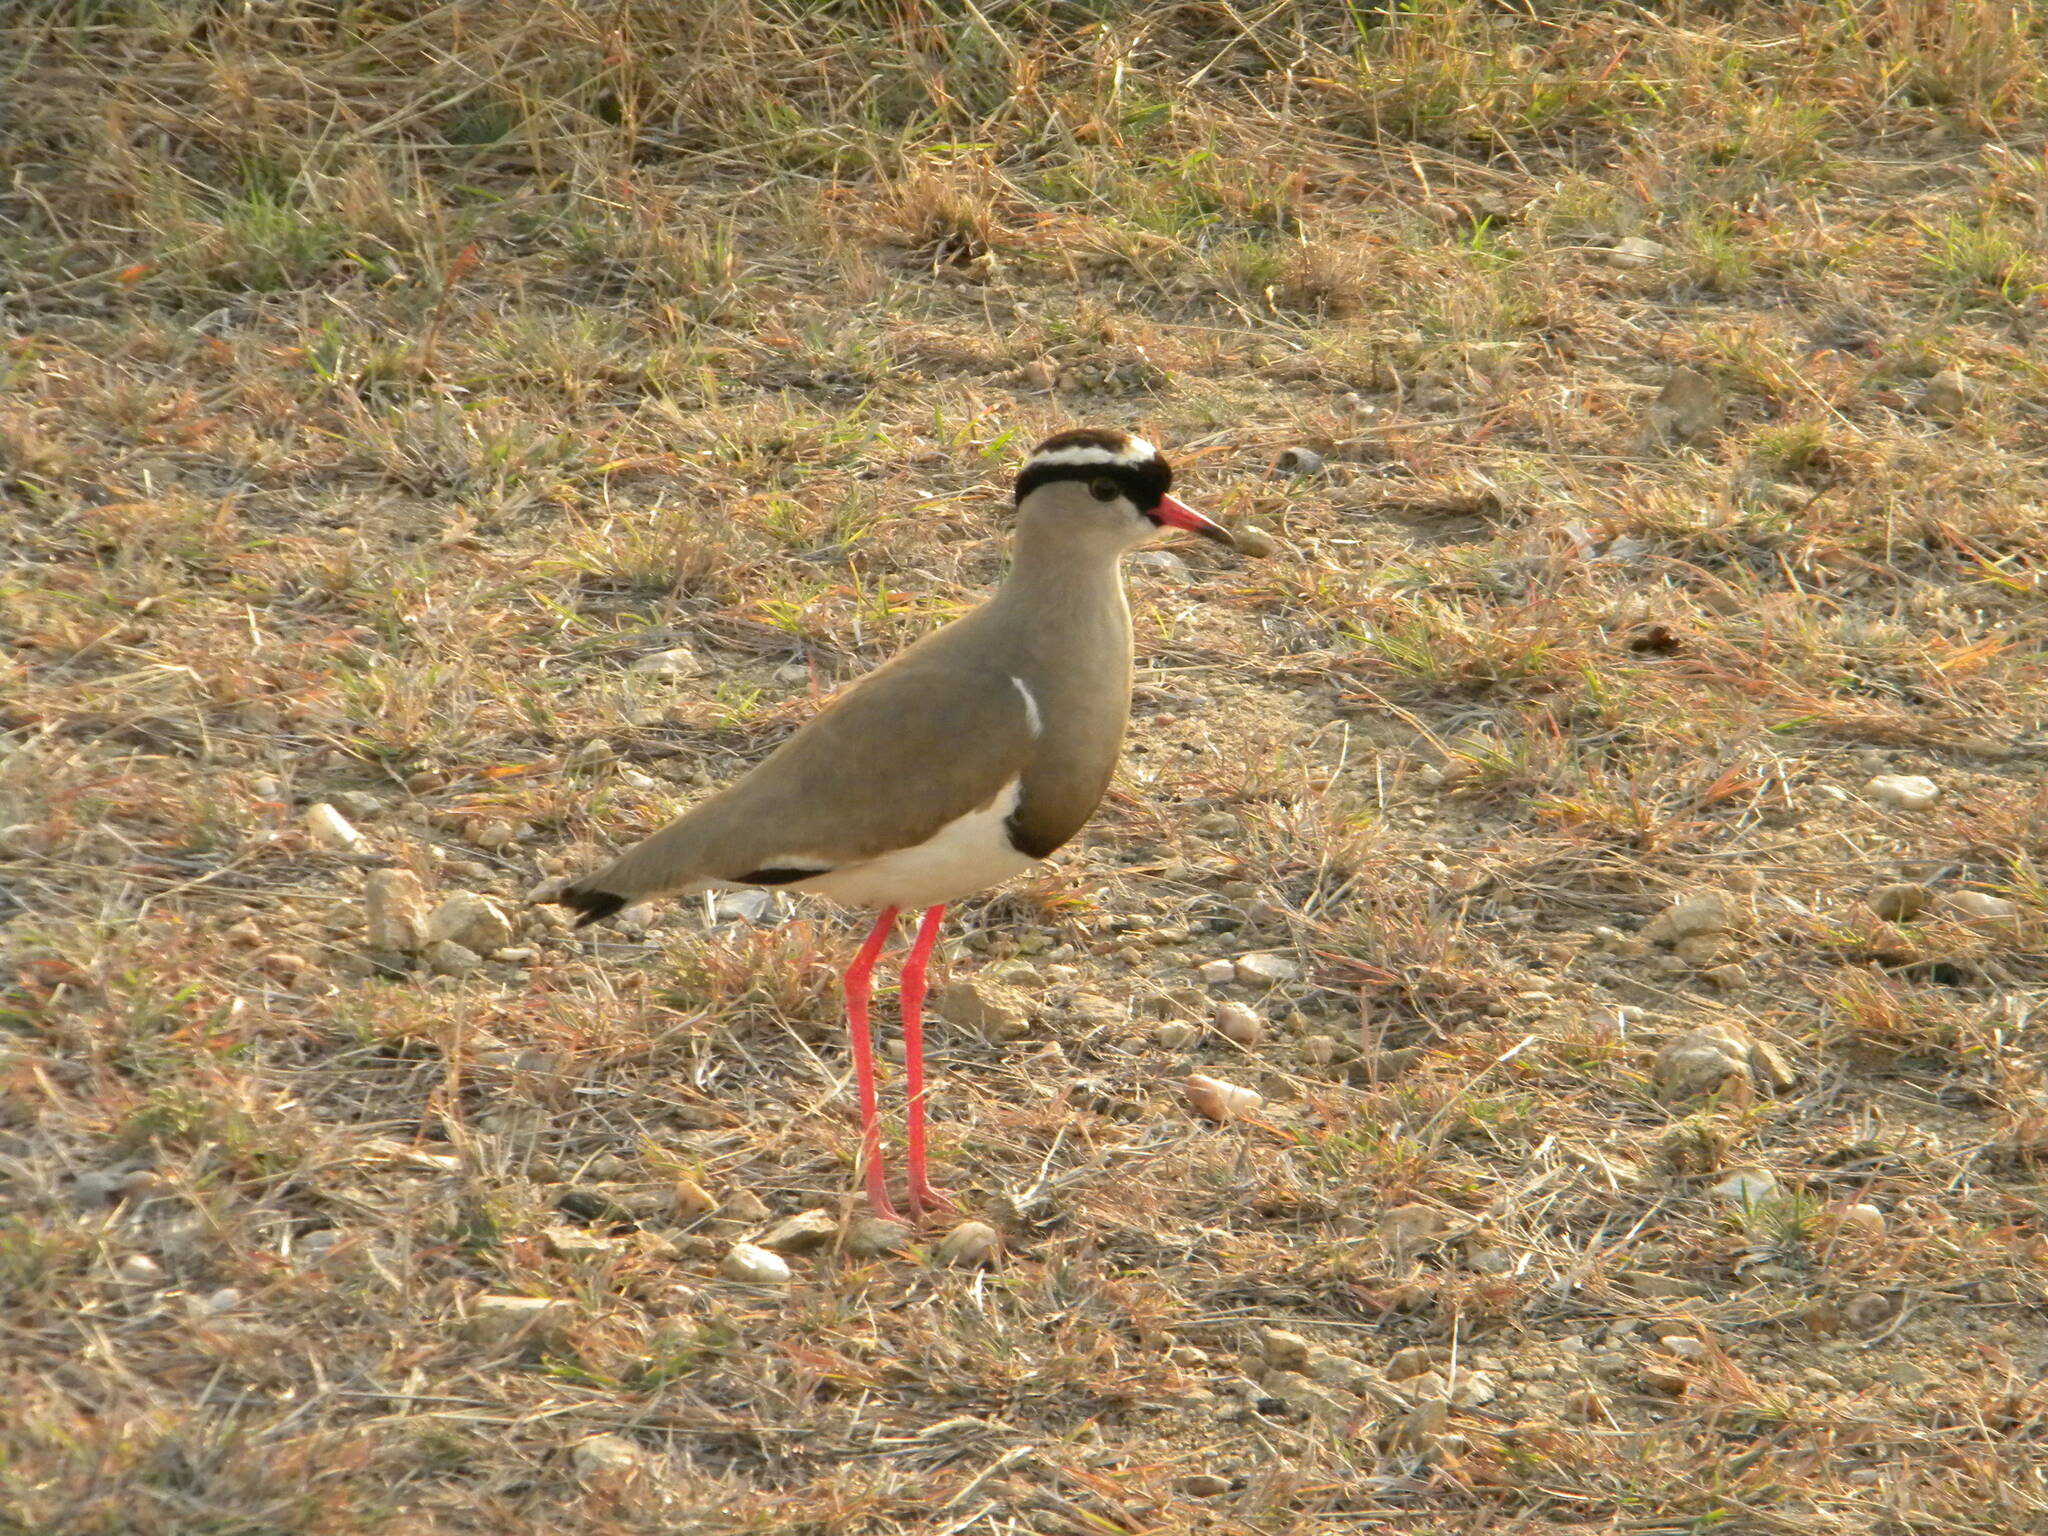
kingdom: Animalia
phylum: Chordata
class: Aves
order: Charadriiformes
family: Charadriidae
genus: Vanellus
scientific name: Vanellus coronatus
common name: Crowned lapwing
